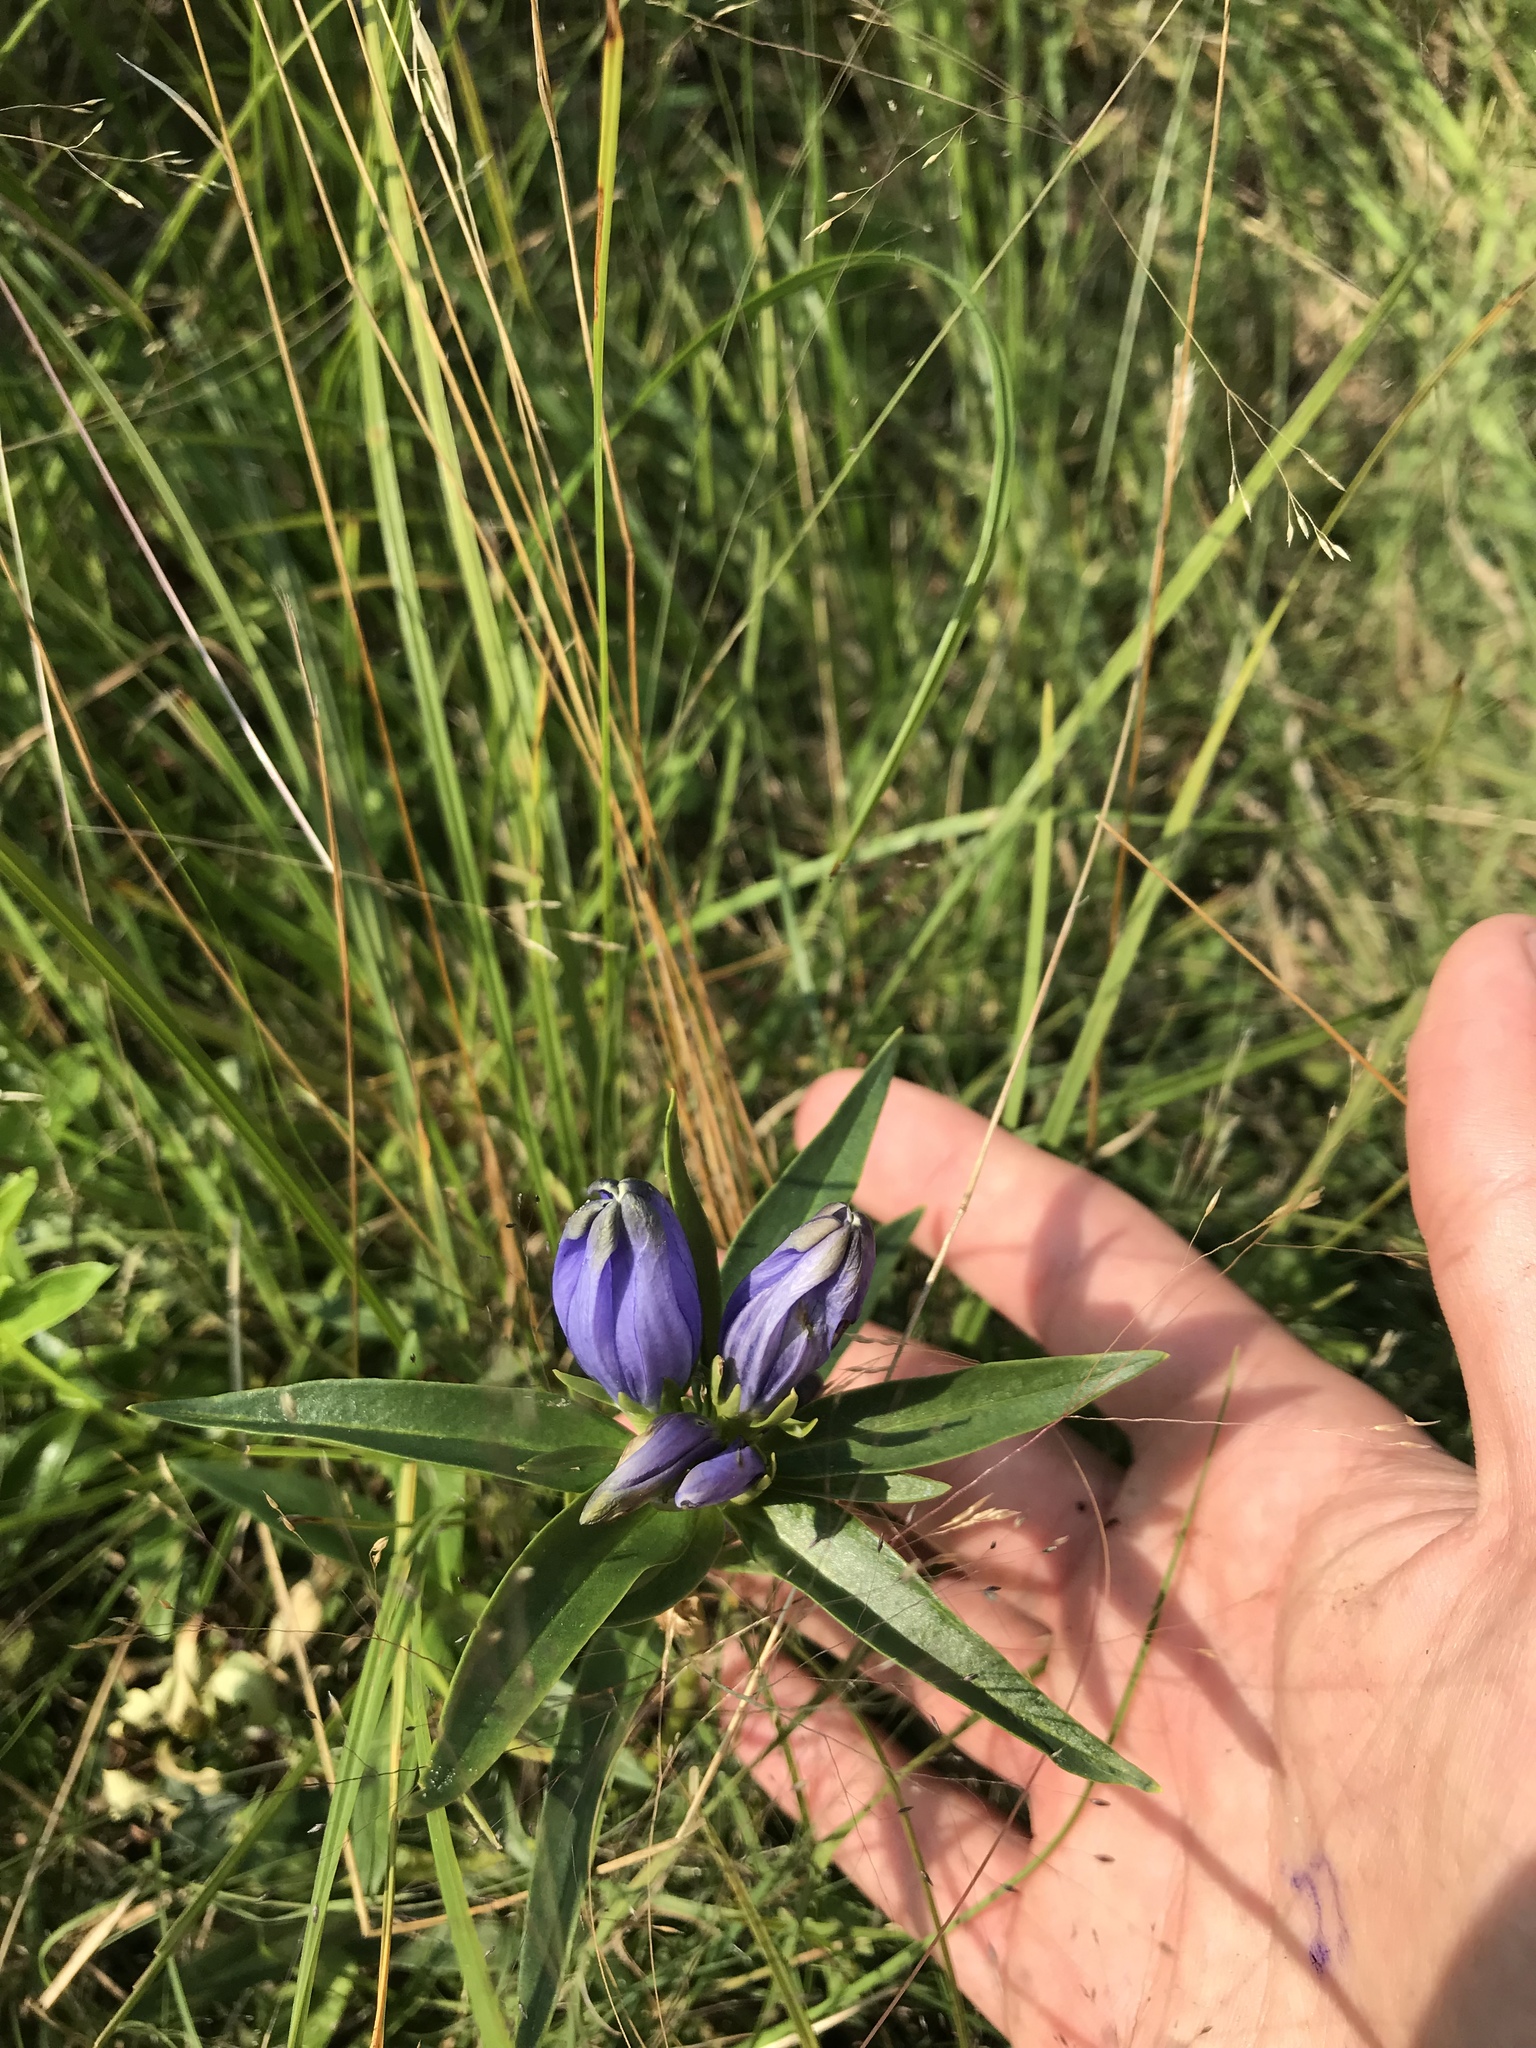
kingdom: Plantae
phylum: Tracheophyta
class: Magnoliopsida
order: Gentianales
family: Gentianaceae
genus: Gentiana
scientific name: Gentiana linearis
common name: Bastard gentian
